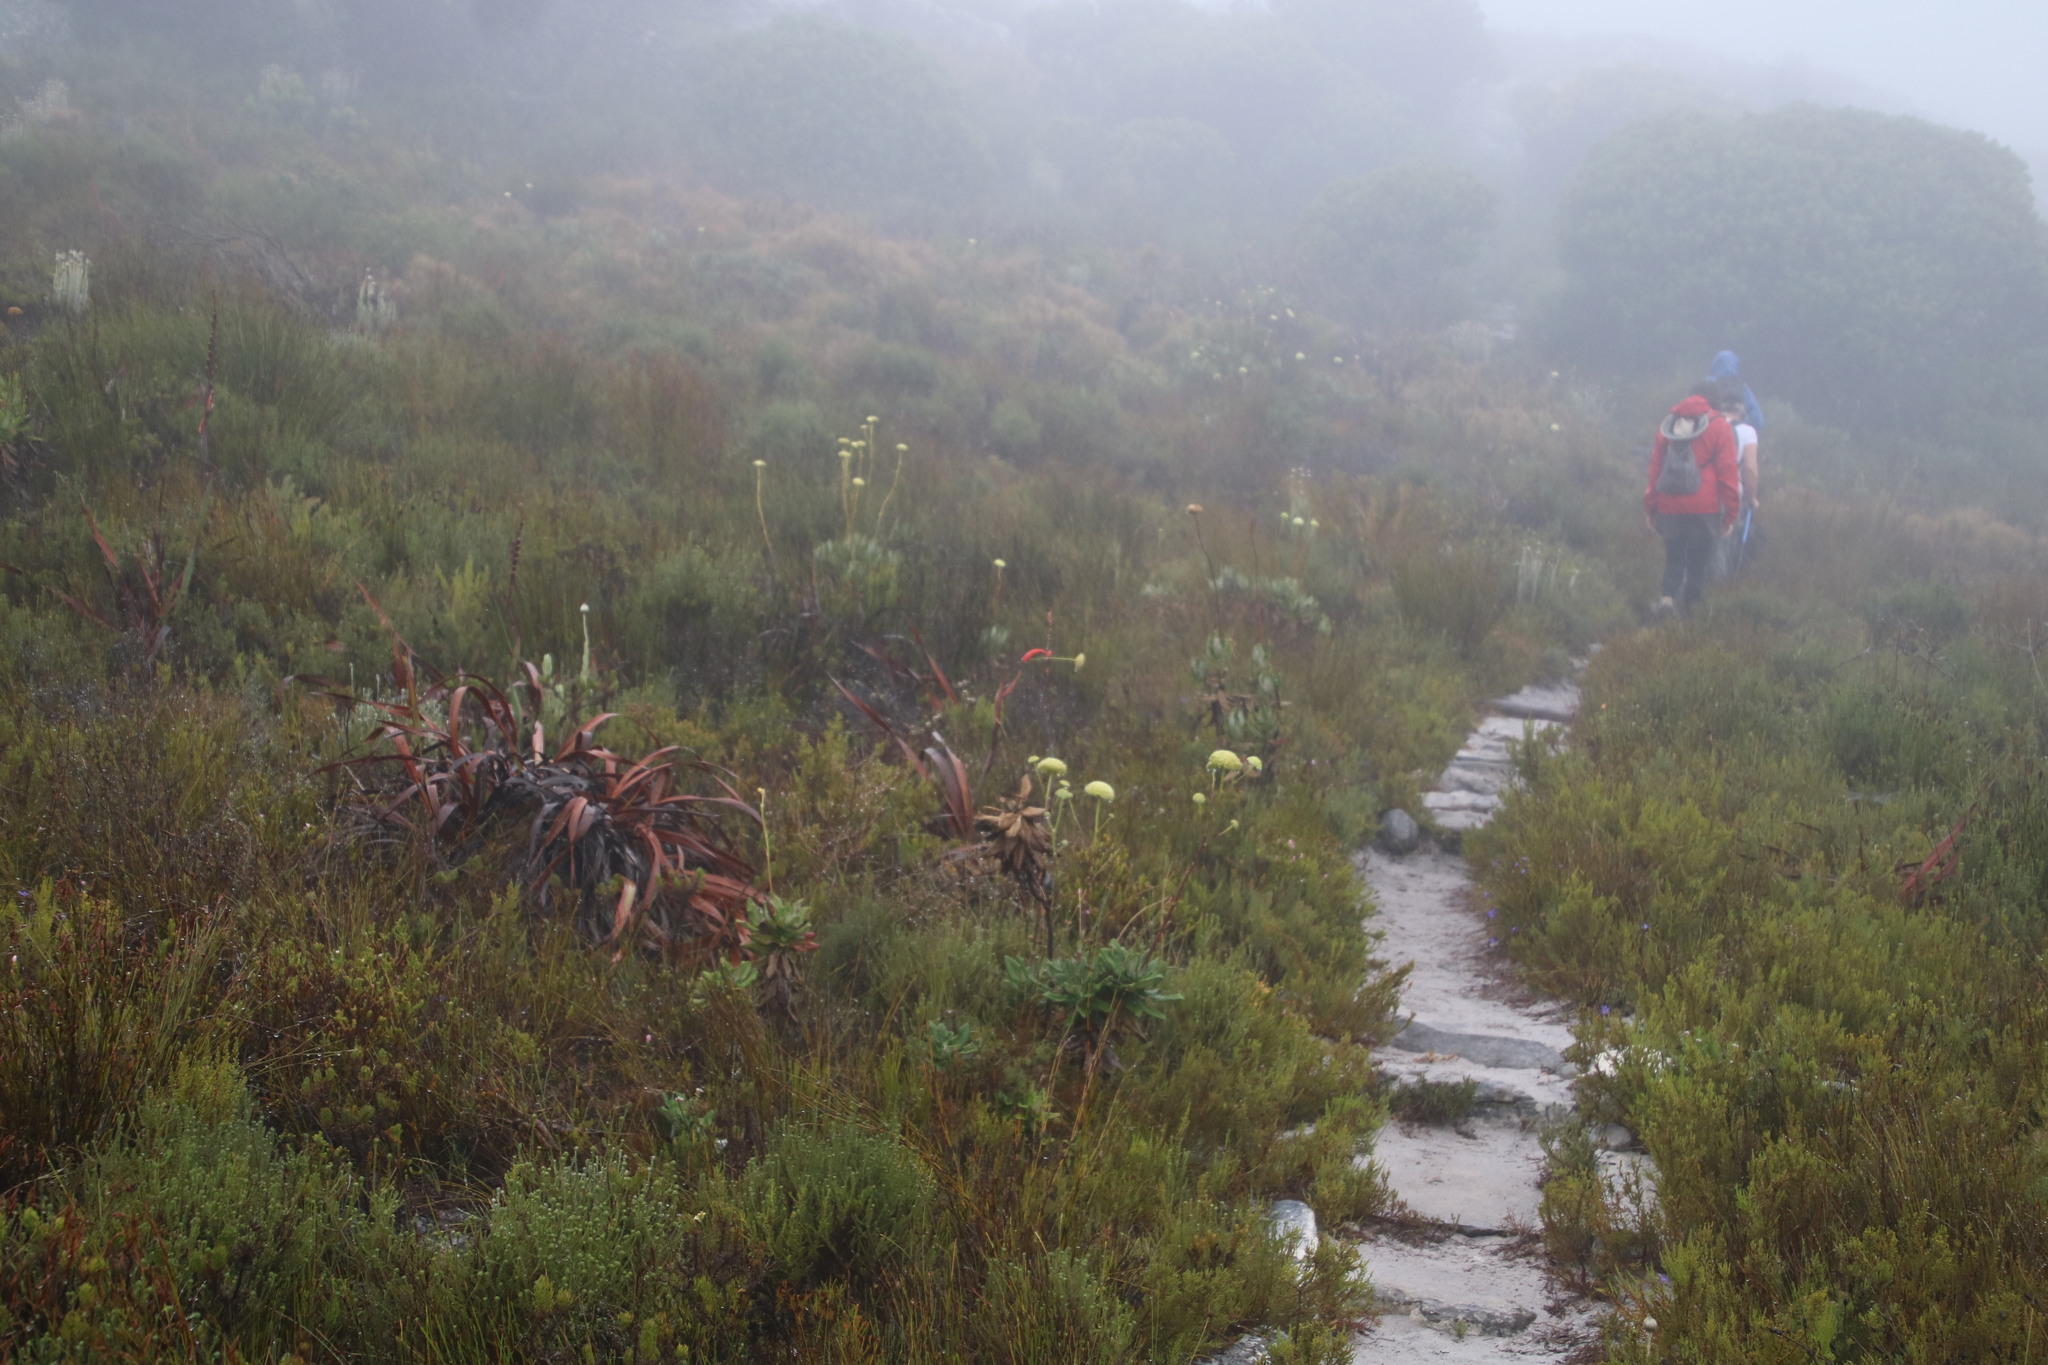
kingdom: Plantae
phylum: Tracheophyta
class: Magnoliopsida
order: Apiales
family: Apiaceae
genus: Hermas
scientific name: Hermas villosa
